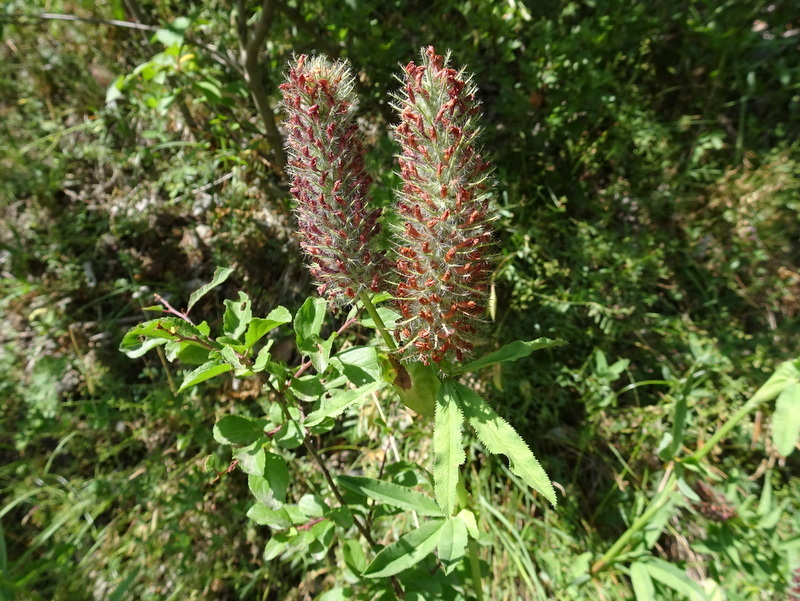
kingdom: Plantae
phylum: Tracheophyta
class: Magnoliopsida
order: Fabales
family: Fabaceae
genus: Trifolium
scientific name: Trifolium angustifolium
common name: Narrow clover
